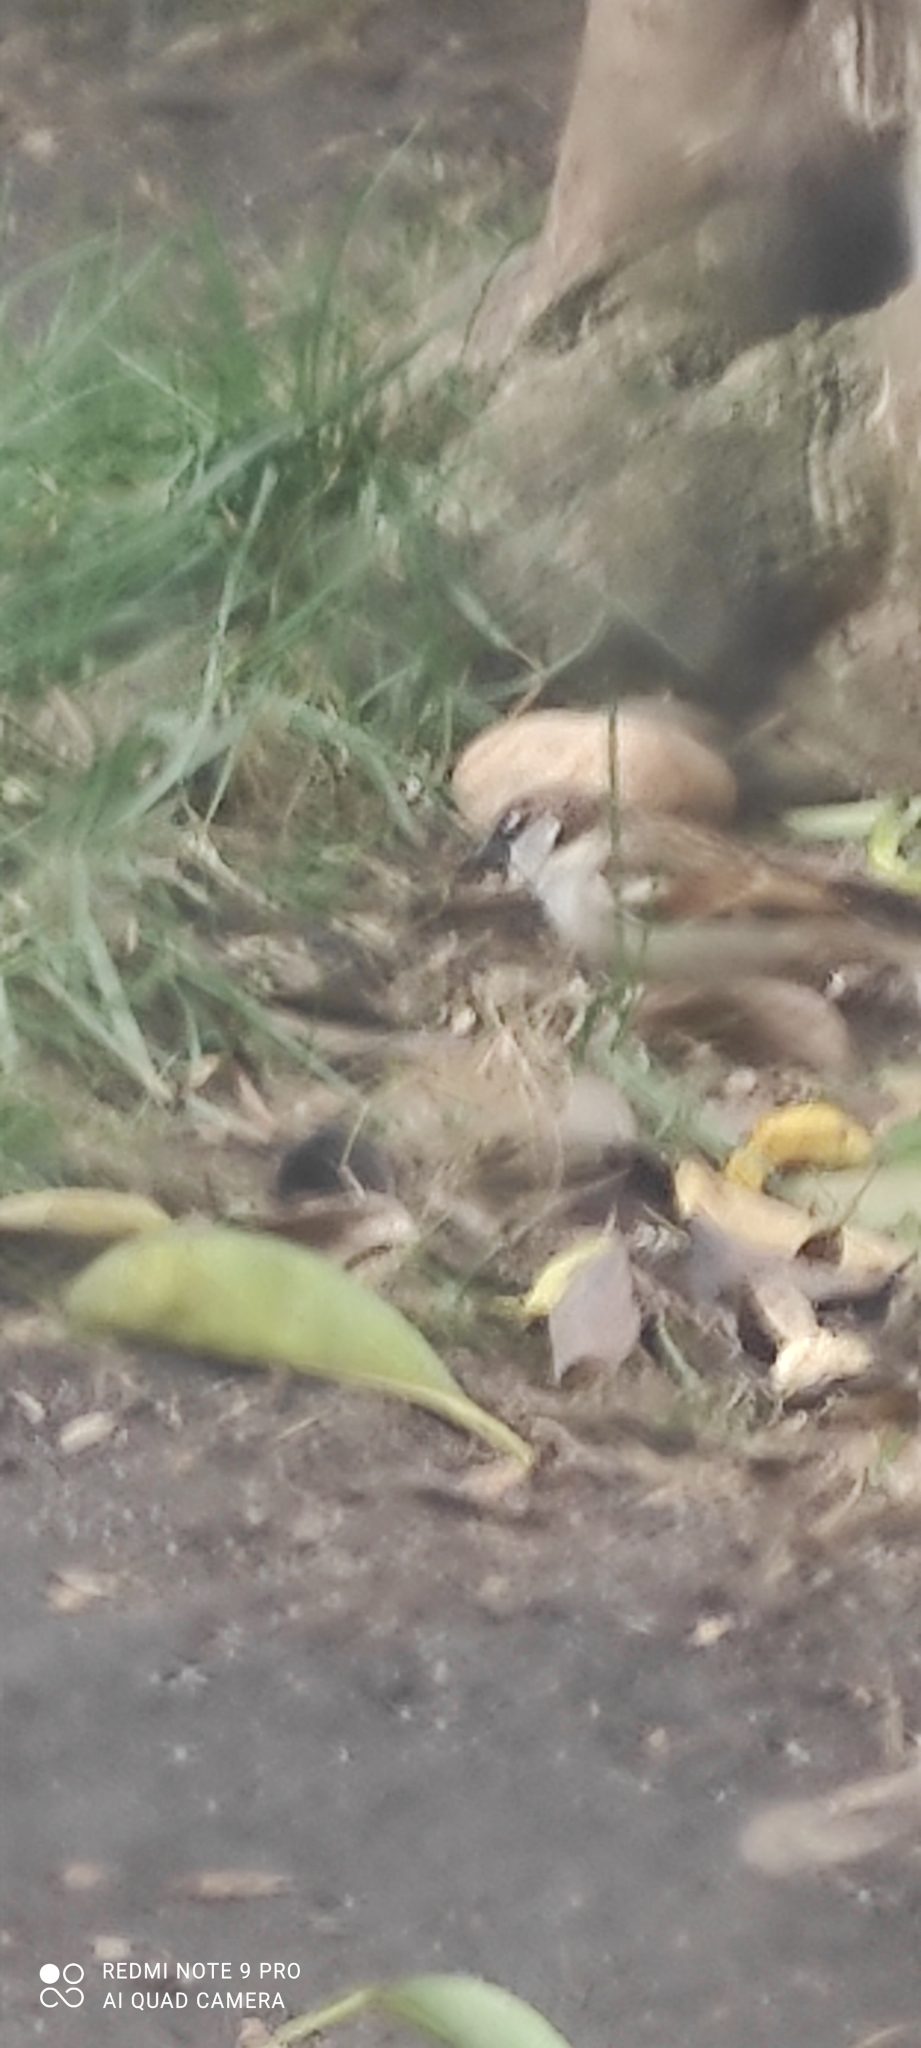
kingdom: Animalia
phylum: Chordata
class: Aves
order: Passeriformes
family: Passeridae
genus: Passer
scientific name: Passer domesticus
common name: House sparrow
